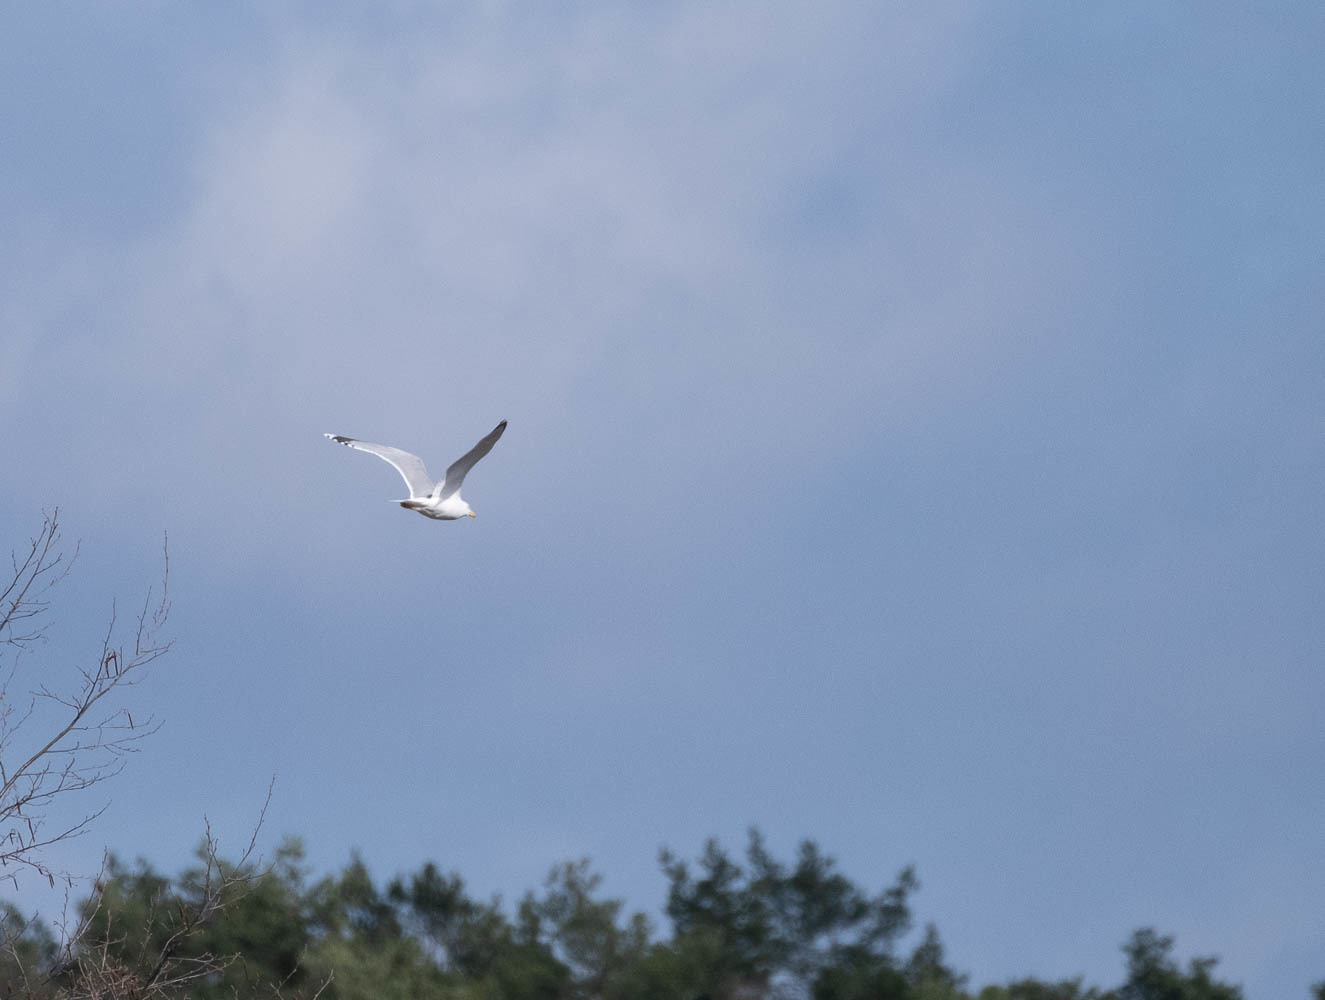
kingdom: Animalia
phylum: Chordata
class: Aves
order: Charadriiformes
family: Laridae
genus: Larus
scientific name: Larus argentatus
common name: Herring gull
